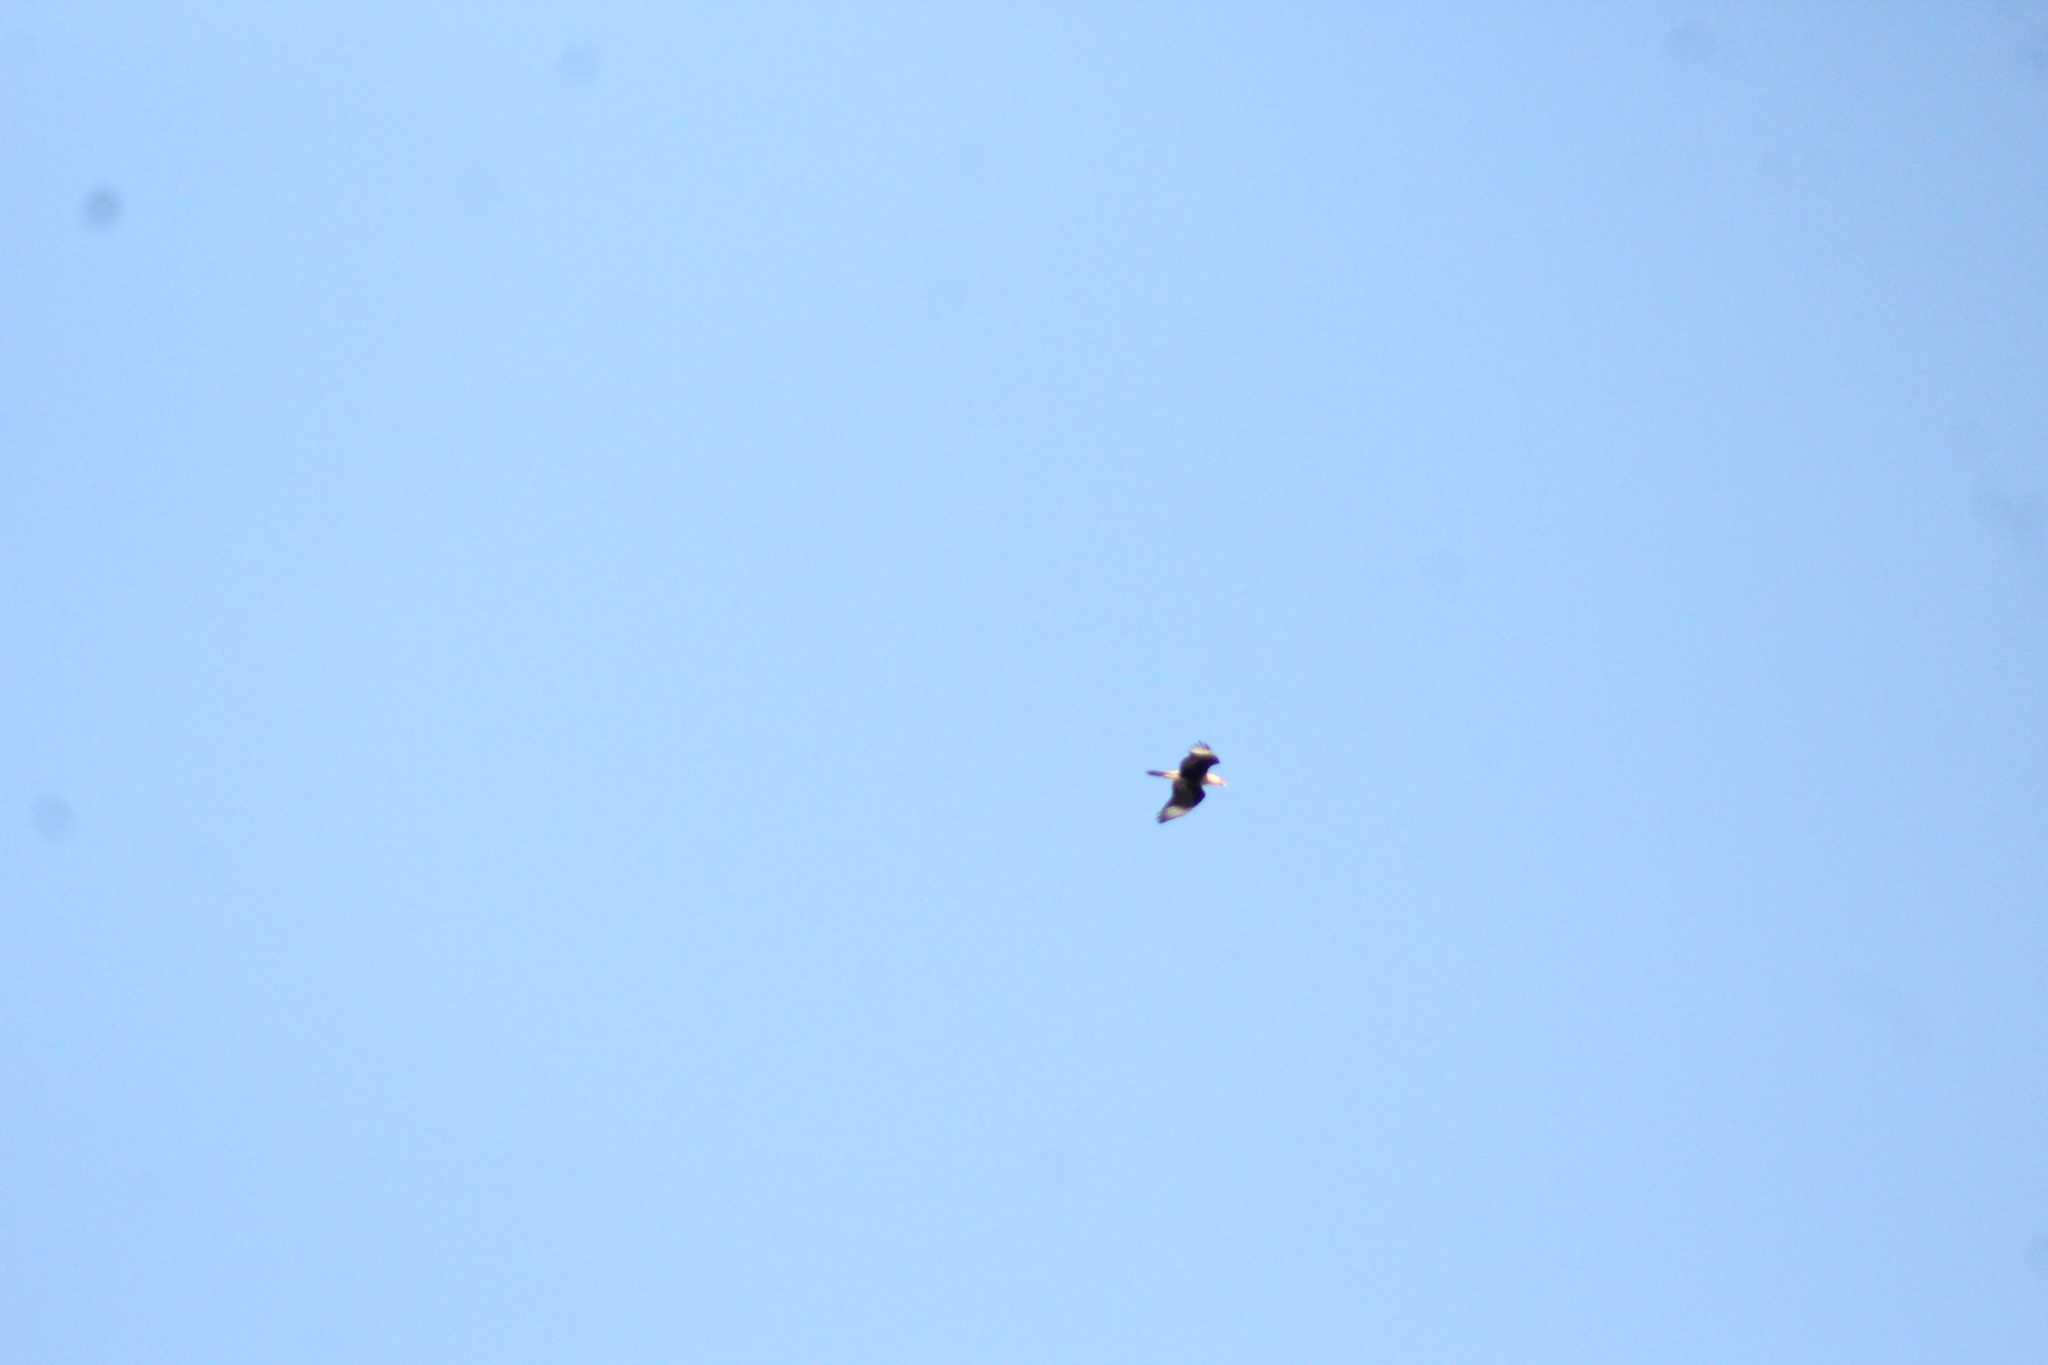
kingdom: Animalia
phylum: Chordata
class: Aves
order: Falconiformes
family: Falconidae
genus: Caracara
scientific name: Caracara plancus
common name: Southern caracara
